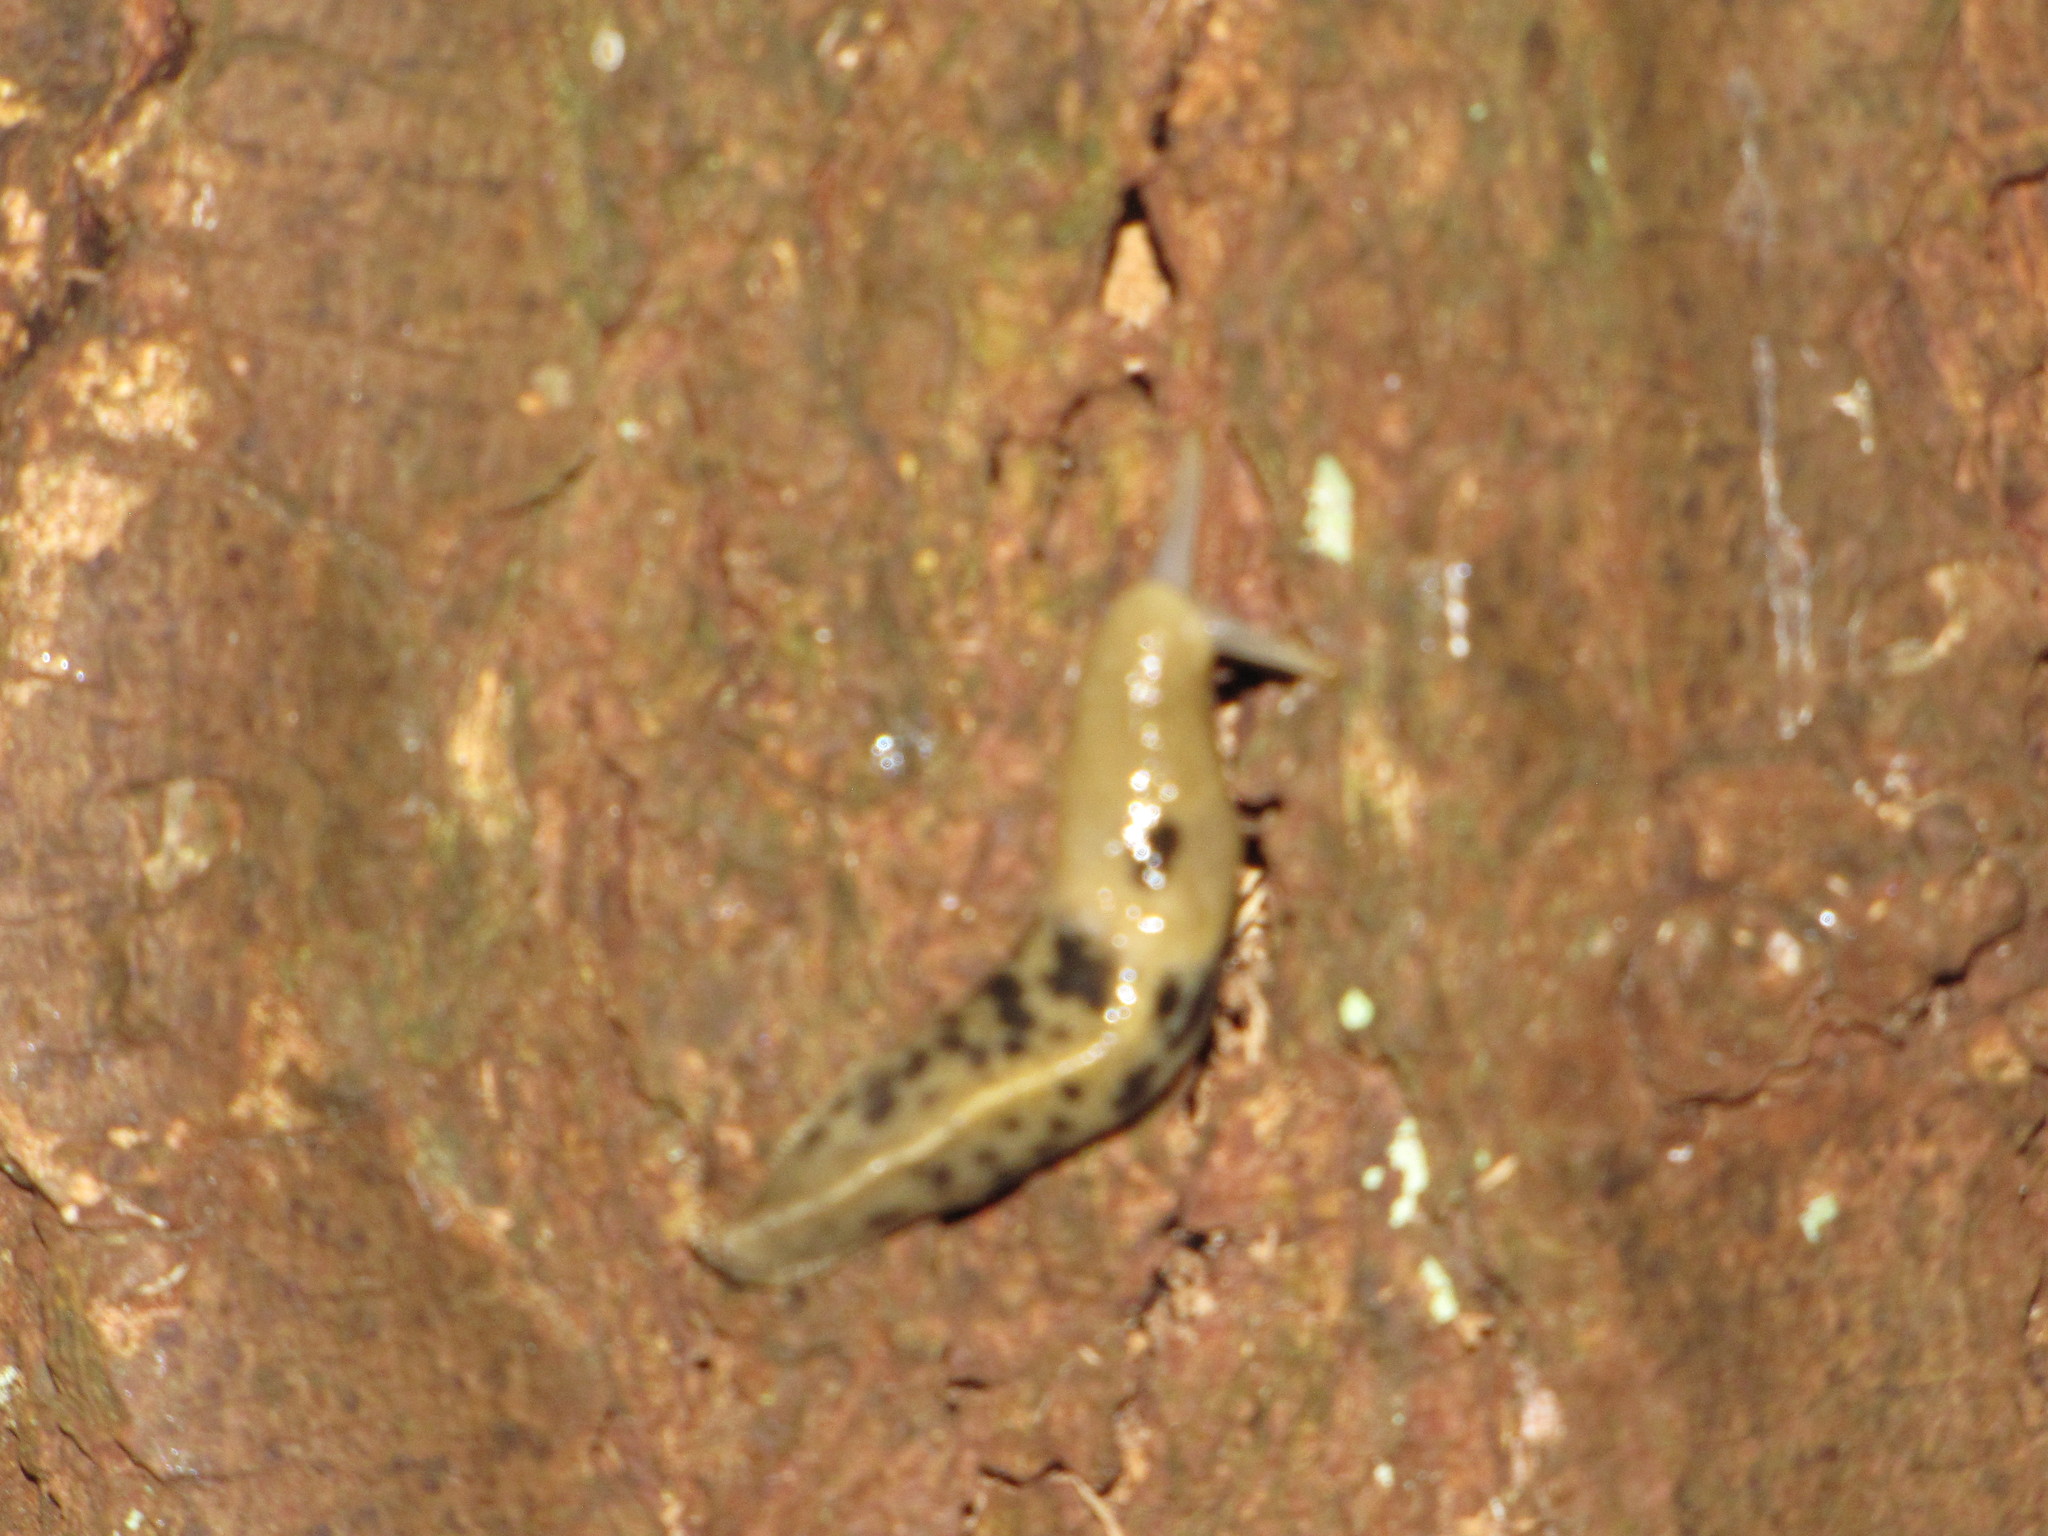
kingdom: Animalia
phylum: Mollusca
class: Gastropoda
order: Stylommatophora
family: Ariolimacidae
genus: Ariolimax
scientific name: Ariolimax columbianus
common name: Pacific banana slug
